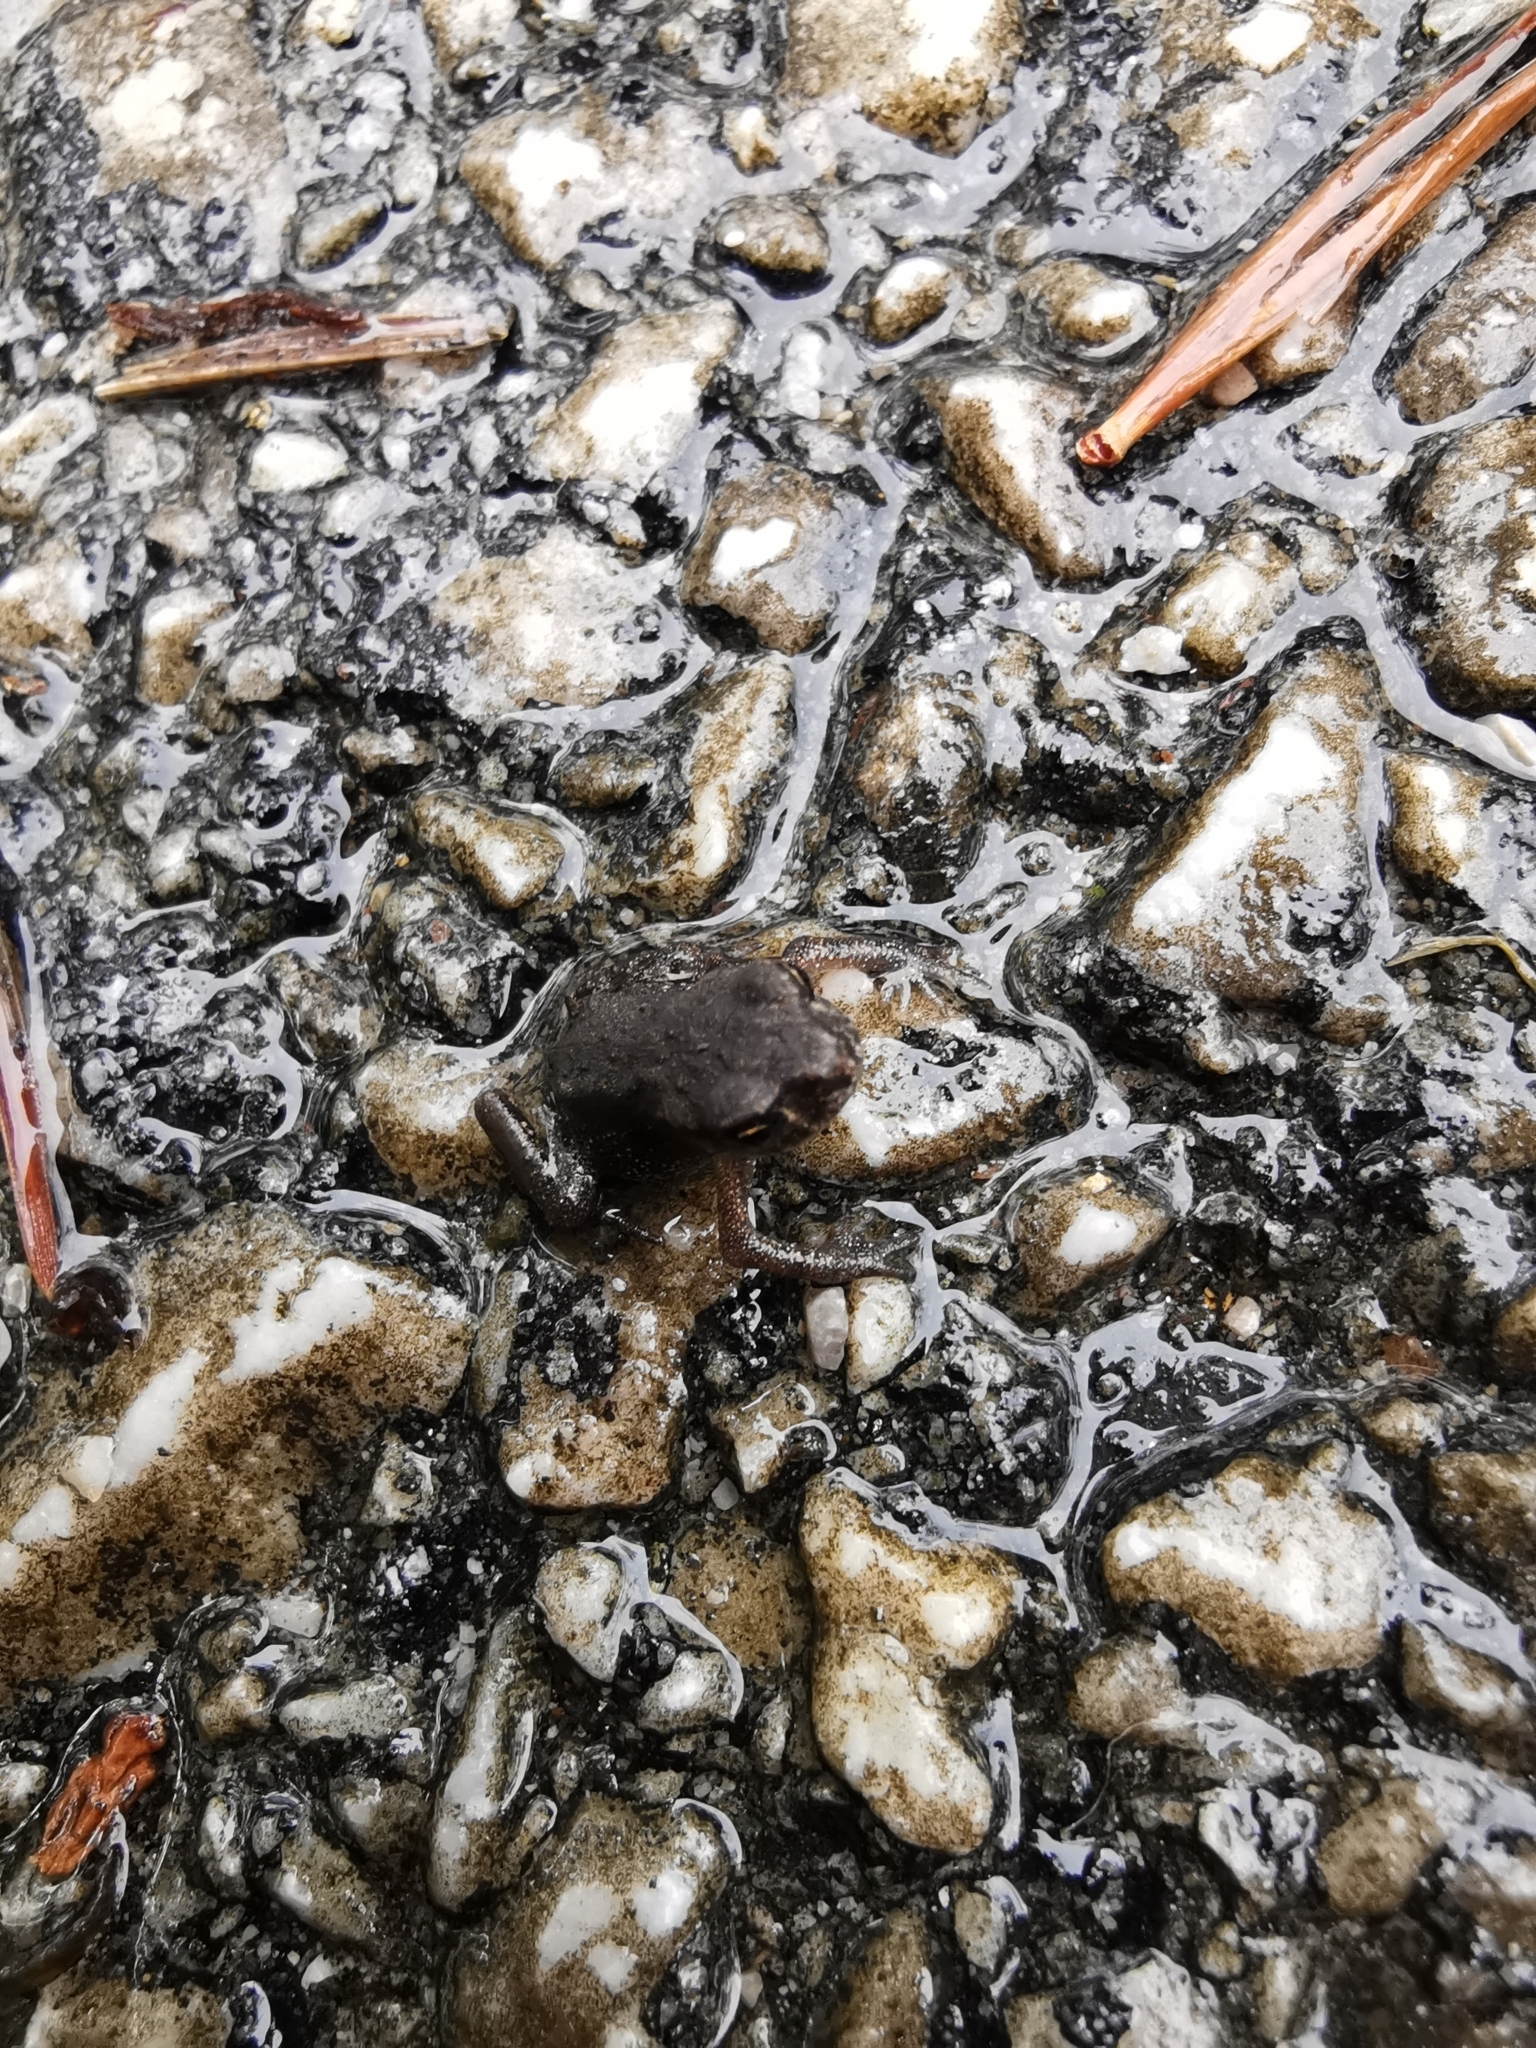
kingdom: Animalia
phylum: Chordata
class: Amphibia
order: Anura
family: Bufonidae
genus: Bufo
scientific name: Bufo bufo
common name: Common toad
